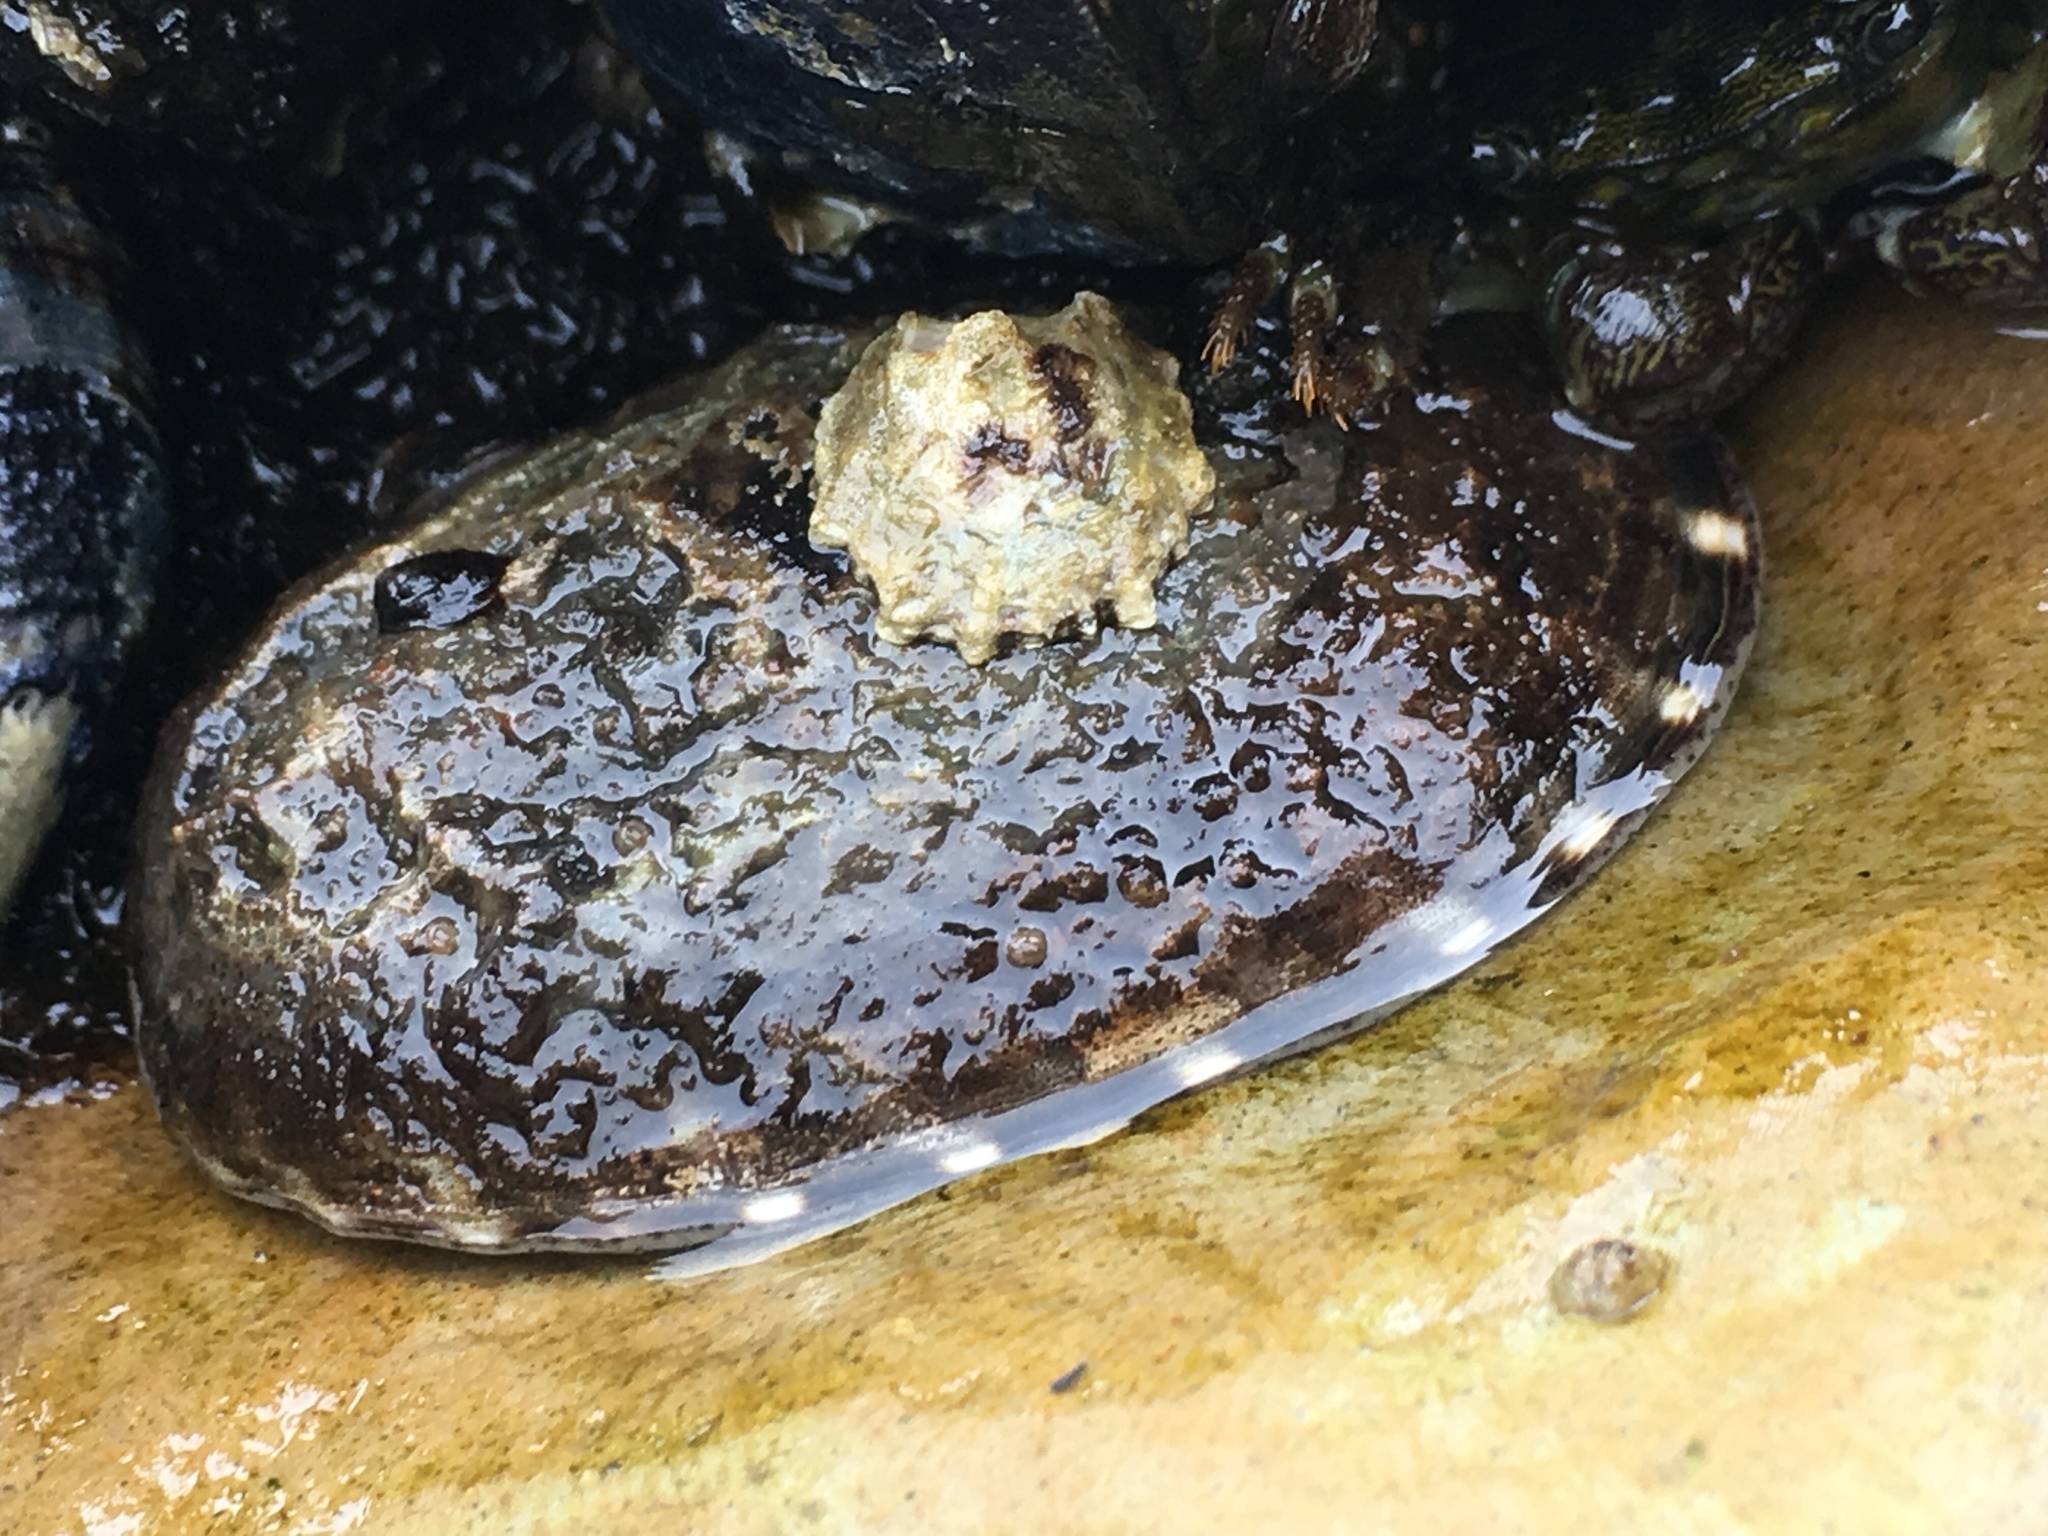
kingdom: Animalia
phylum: Mollusca
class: Gastropoda
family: Lottiidae
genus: Lottia
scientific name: Lottia gigantea
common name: Owl limpet
